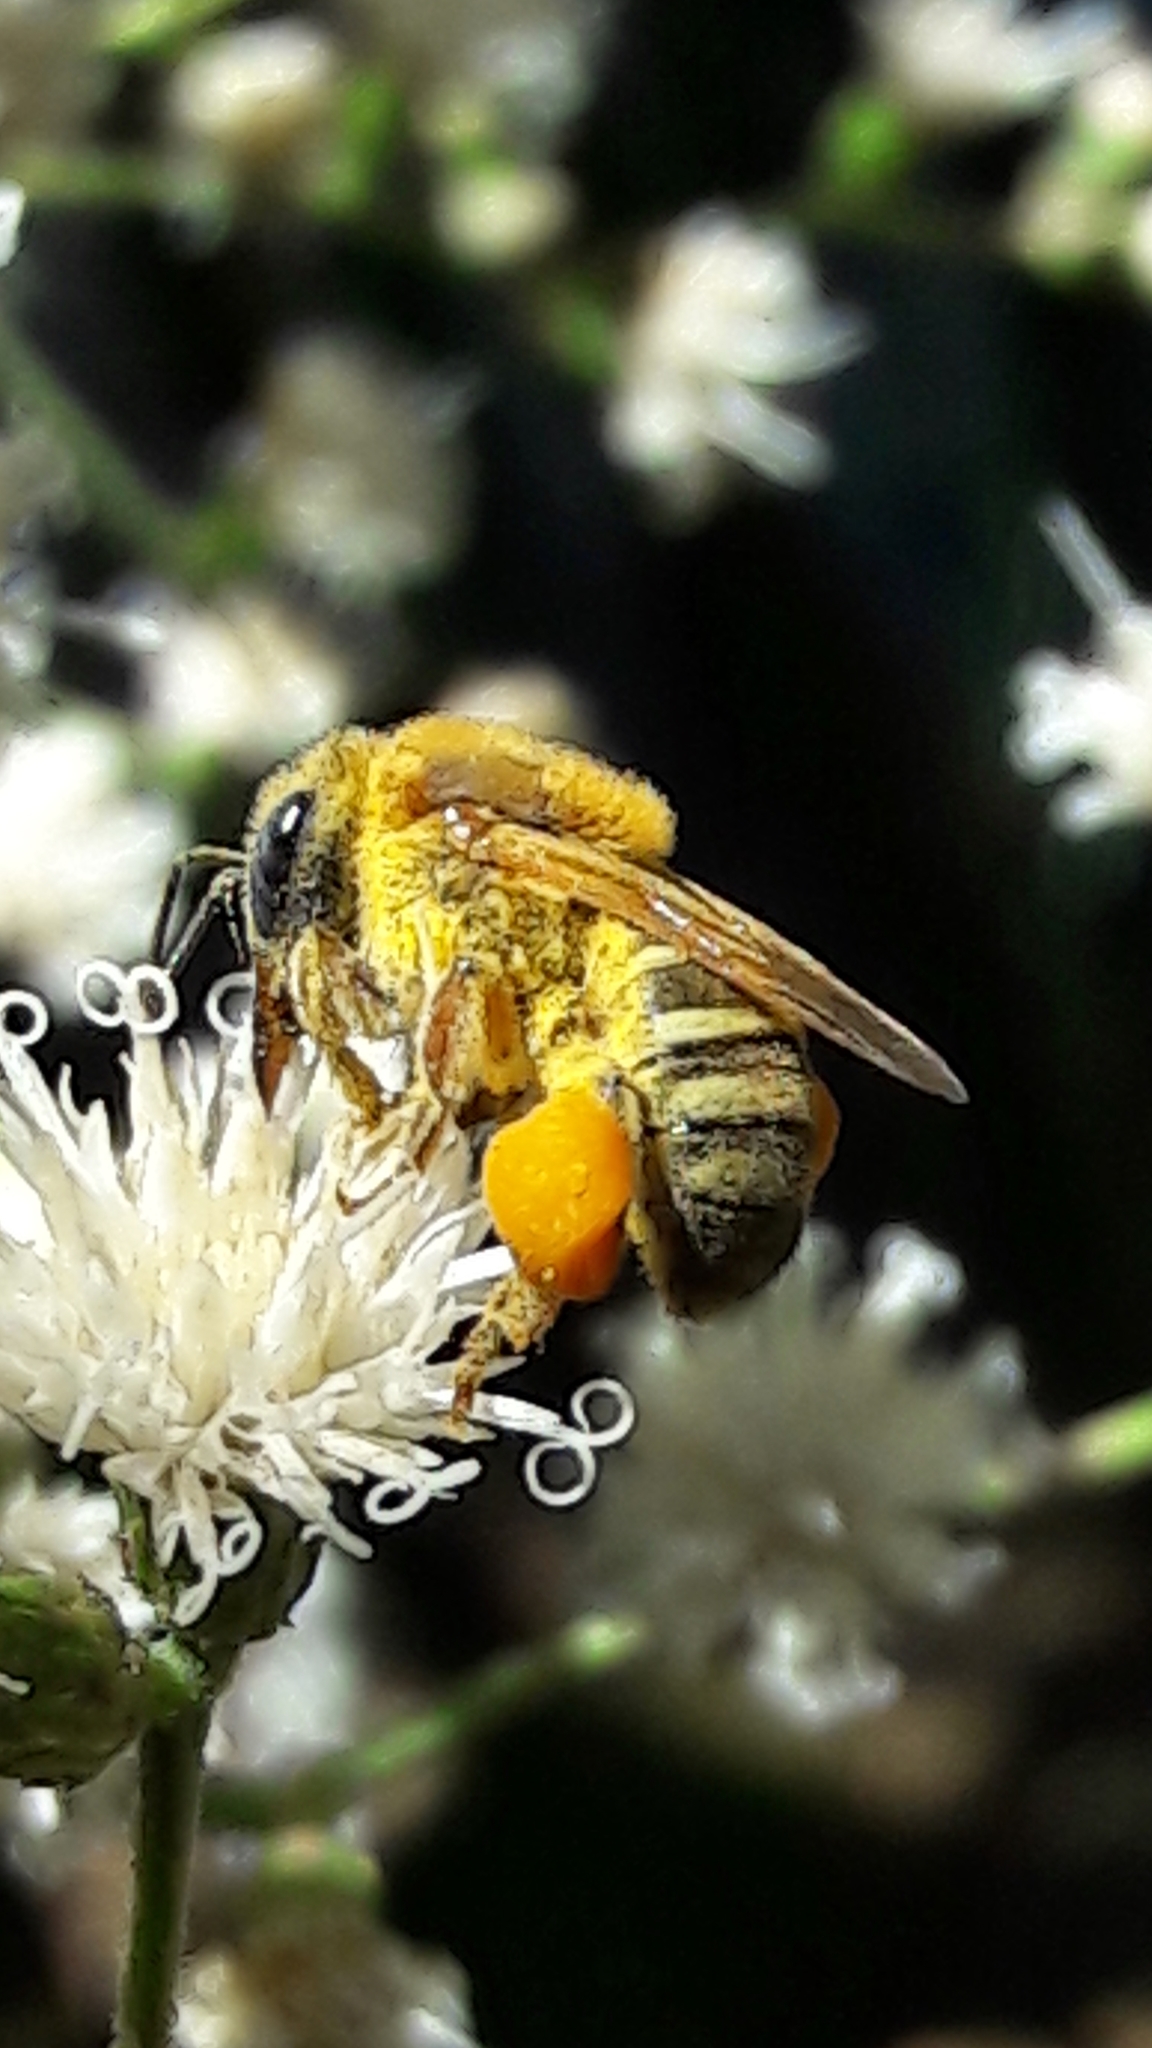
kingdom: Animalia
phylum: Arthropoda
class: Insecta
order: Hymenoptera
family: Apidae
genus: Melipona
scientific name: Melipona quinquefasciata
